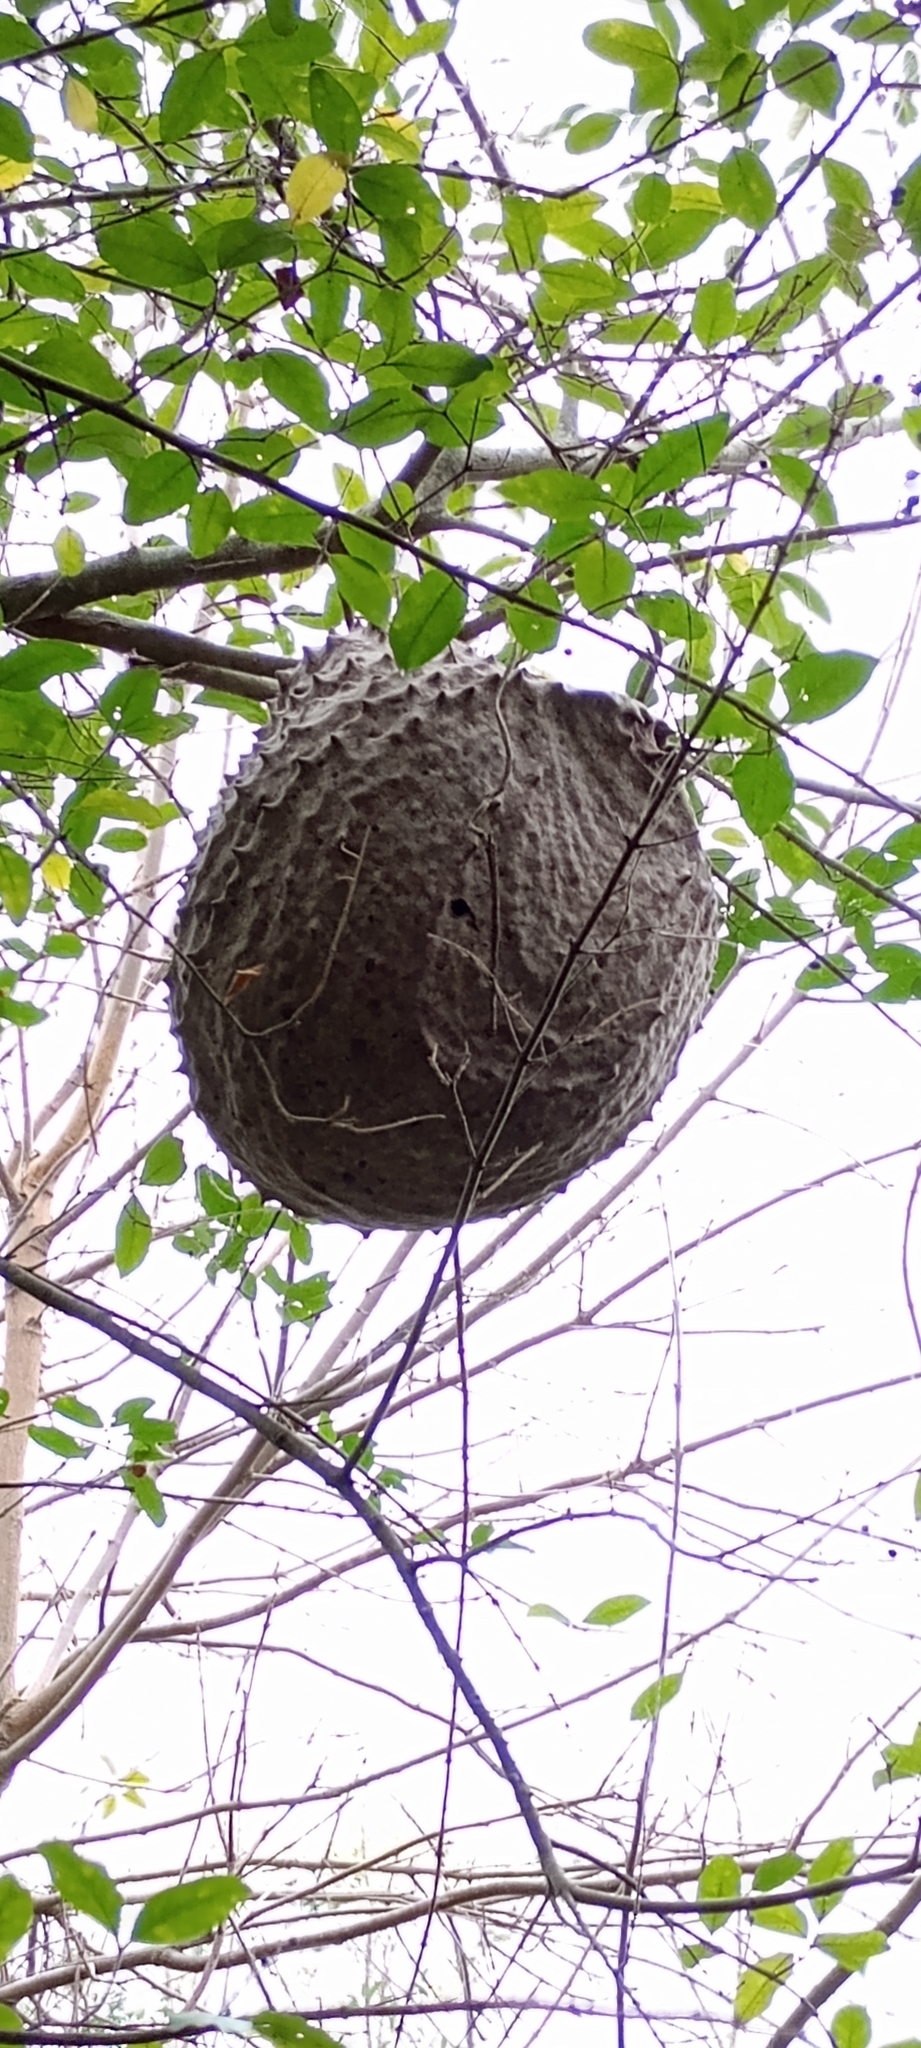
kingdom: Animalia
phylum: Arthropoda
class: Insecta
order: Hymenoptera
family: Eumenidae
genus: Polybia
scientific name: Polybia scutellaris
